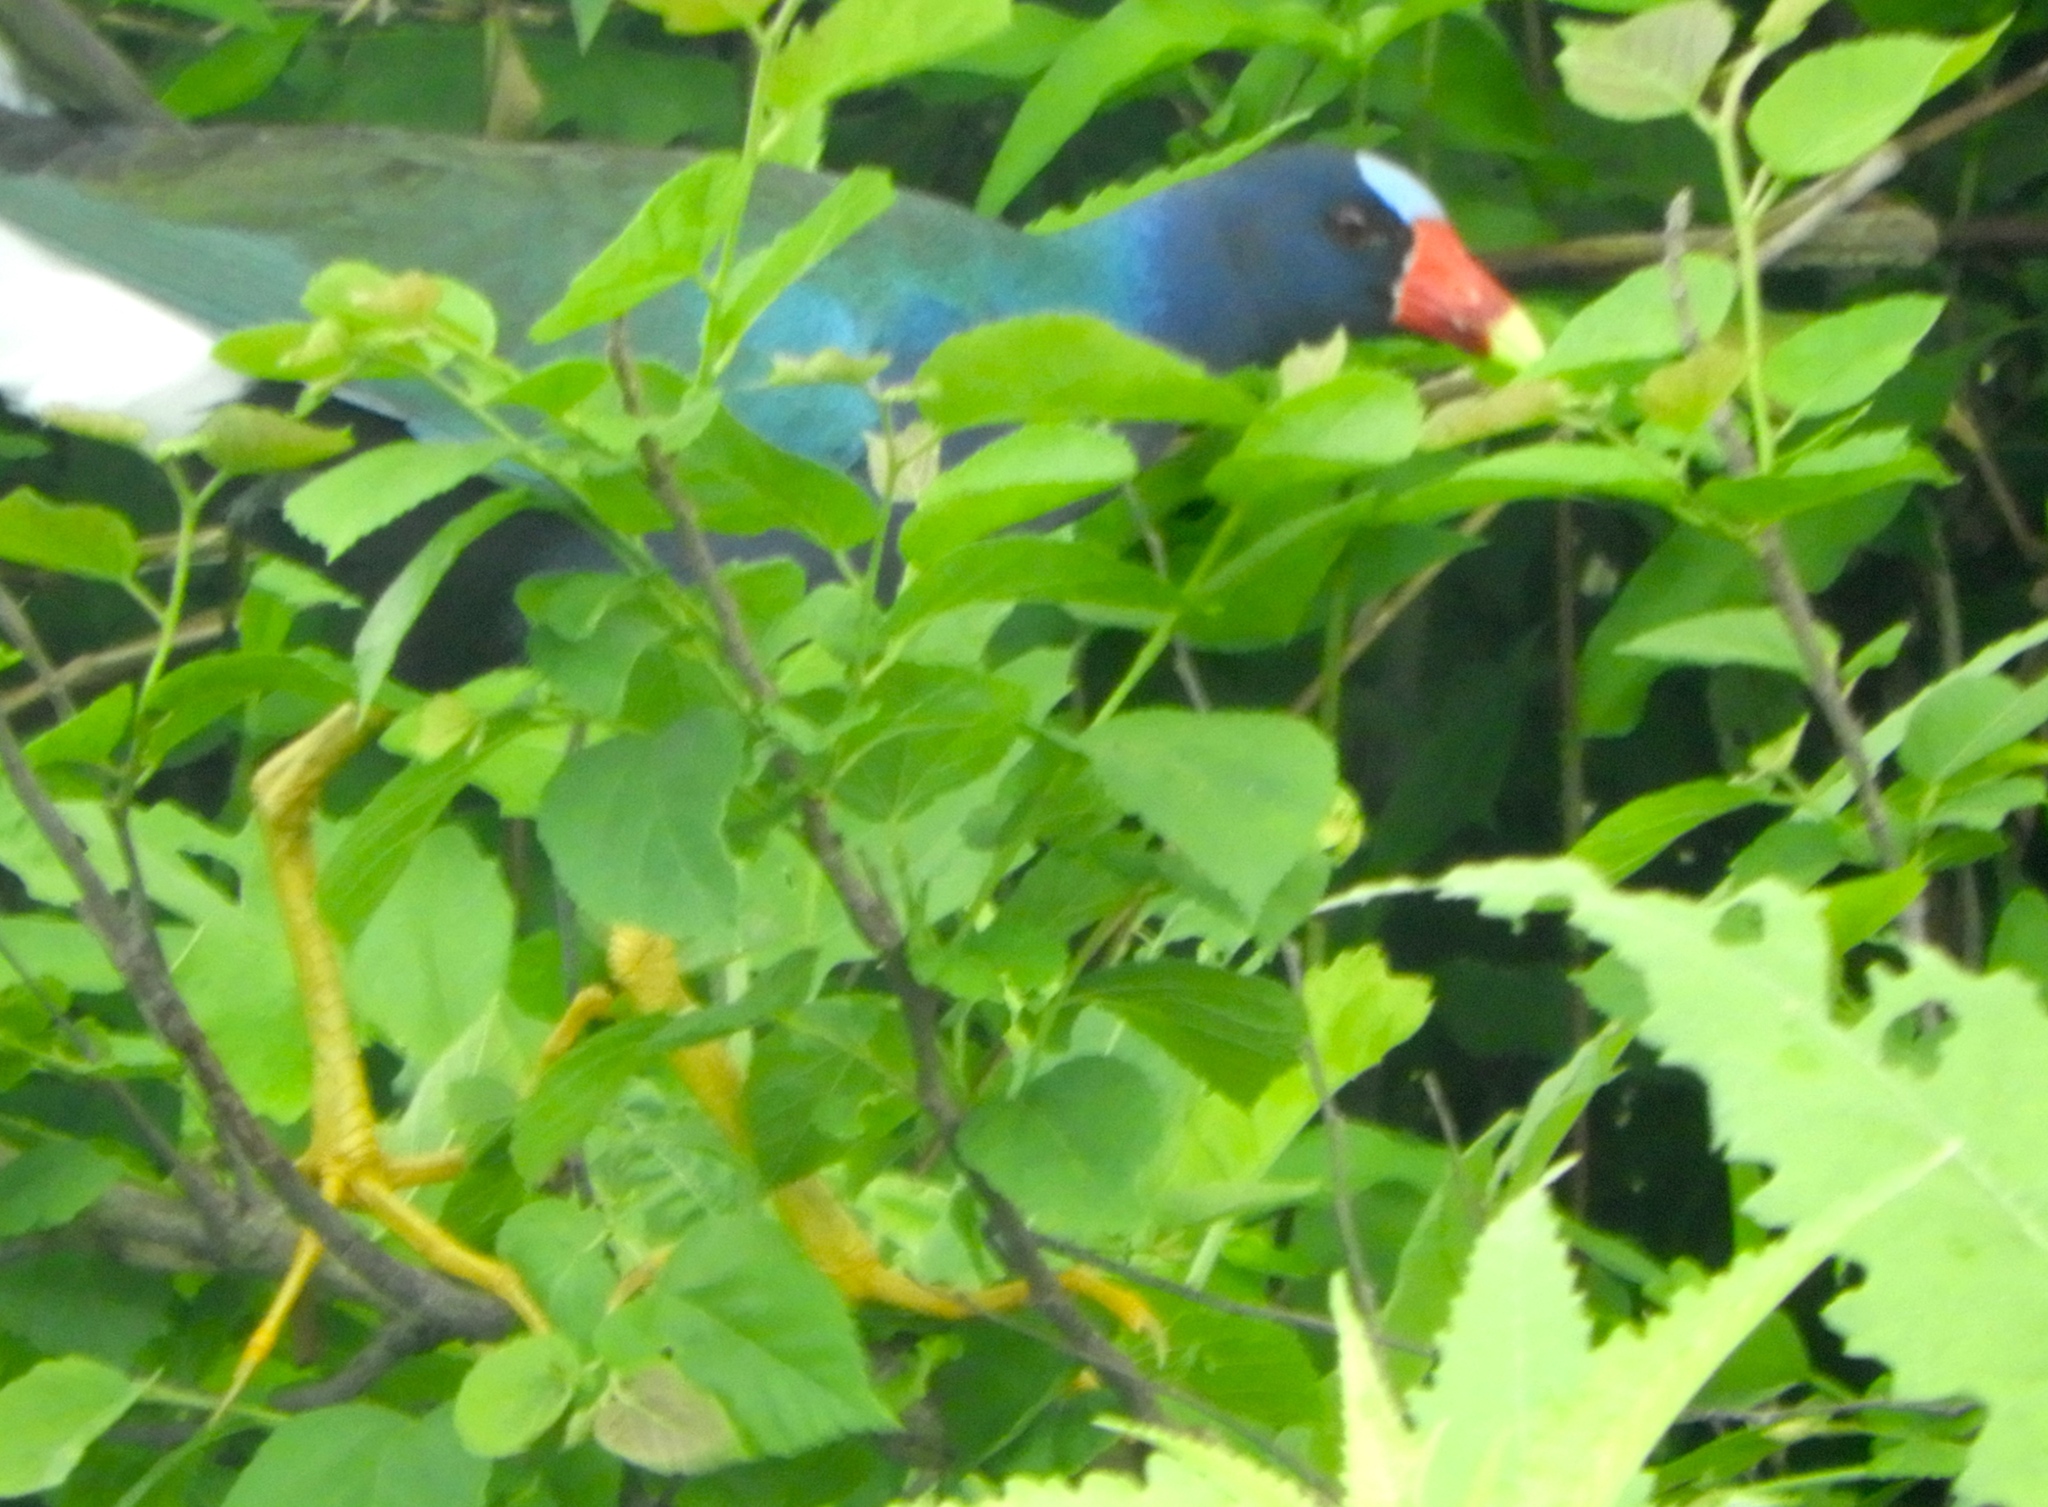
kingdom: Animalia
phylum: Chordata
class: Aves
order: Gruiformes
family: Rallidae
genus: Porphyrio
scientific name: Porphyrio martinica
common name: Purple gallinule
